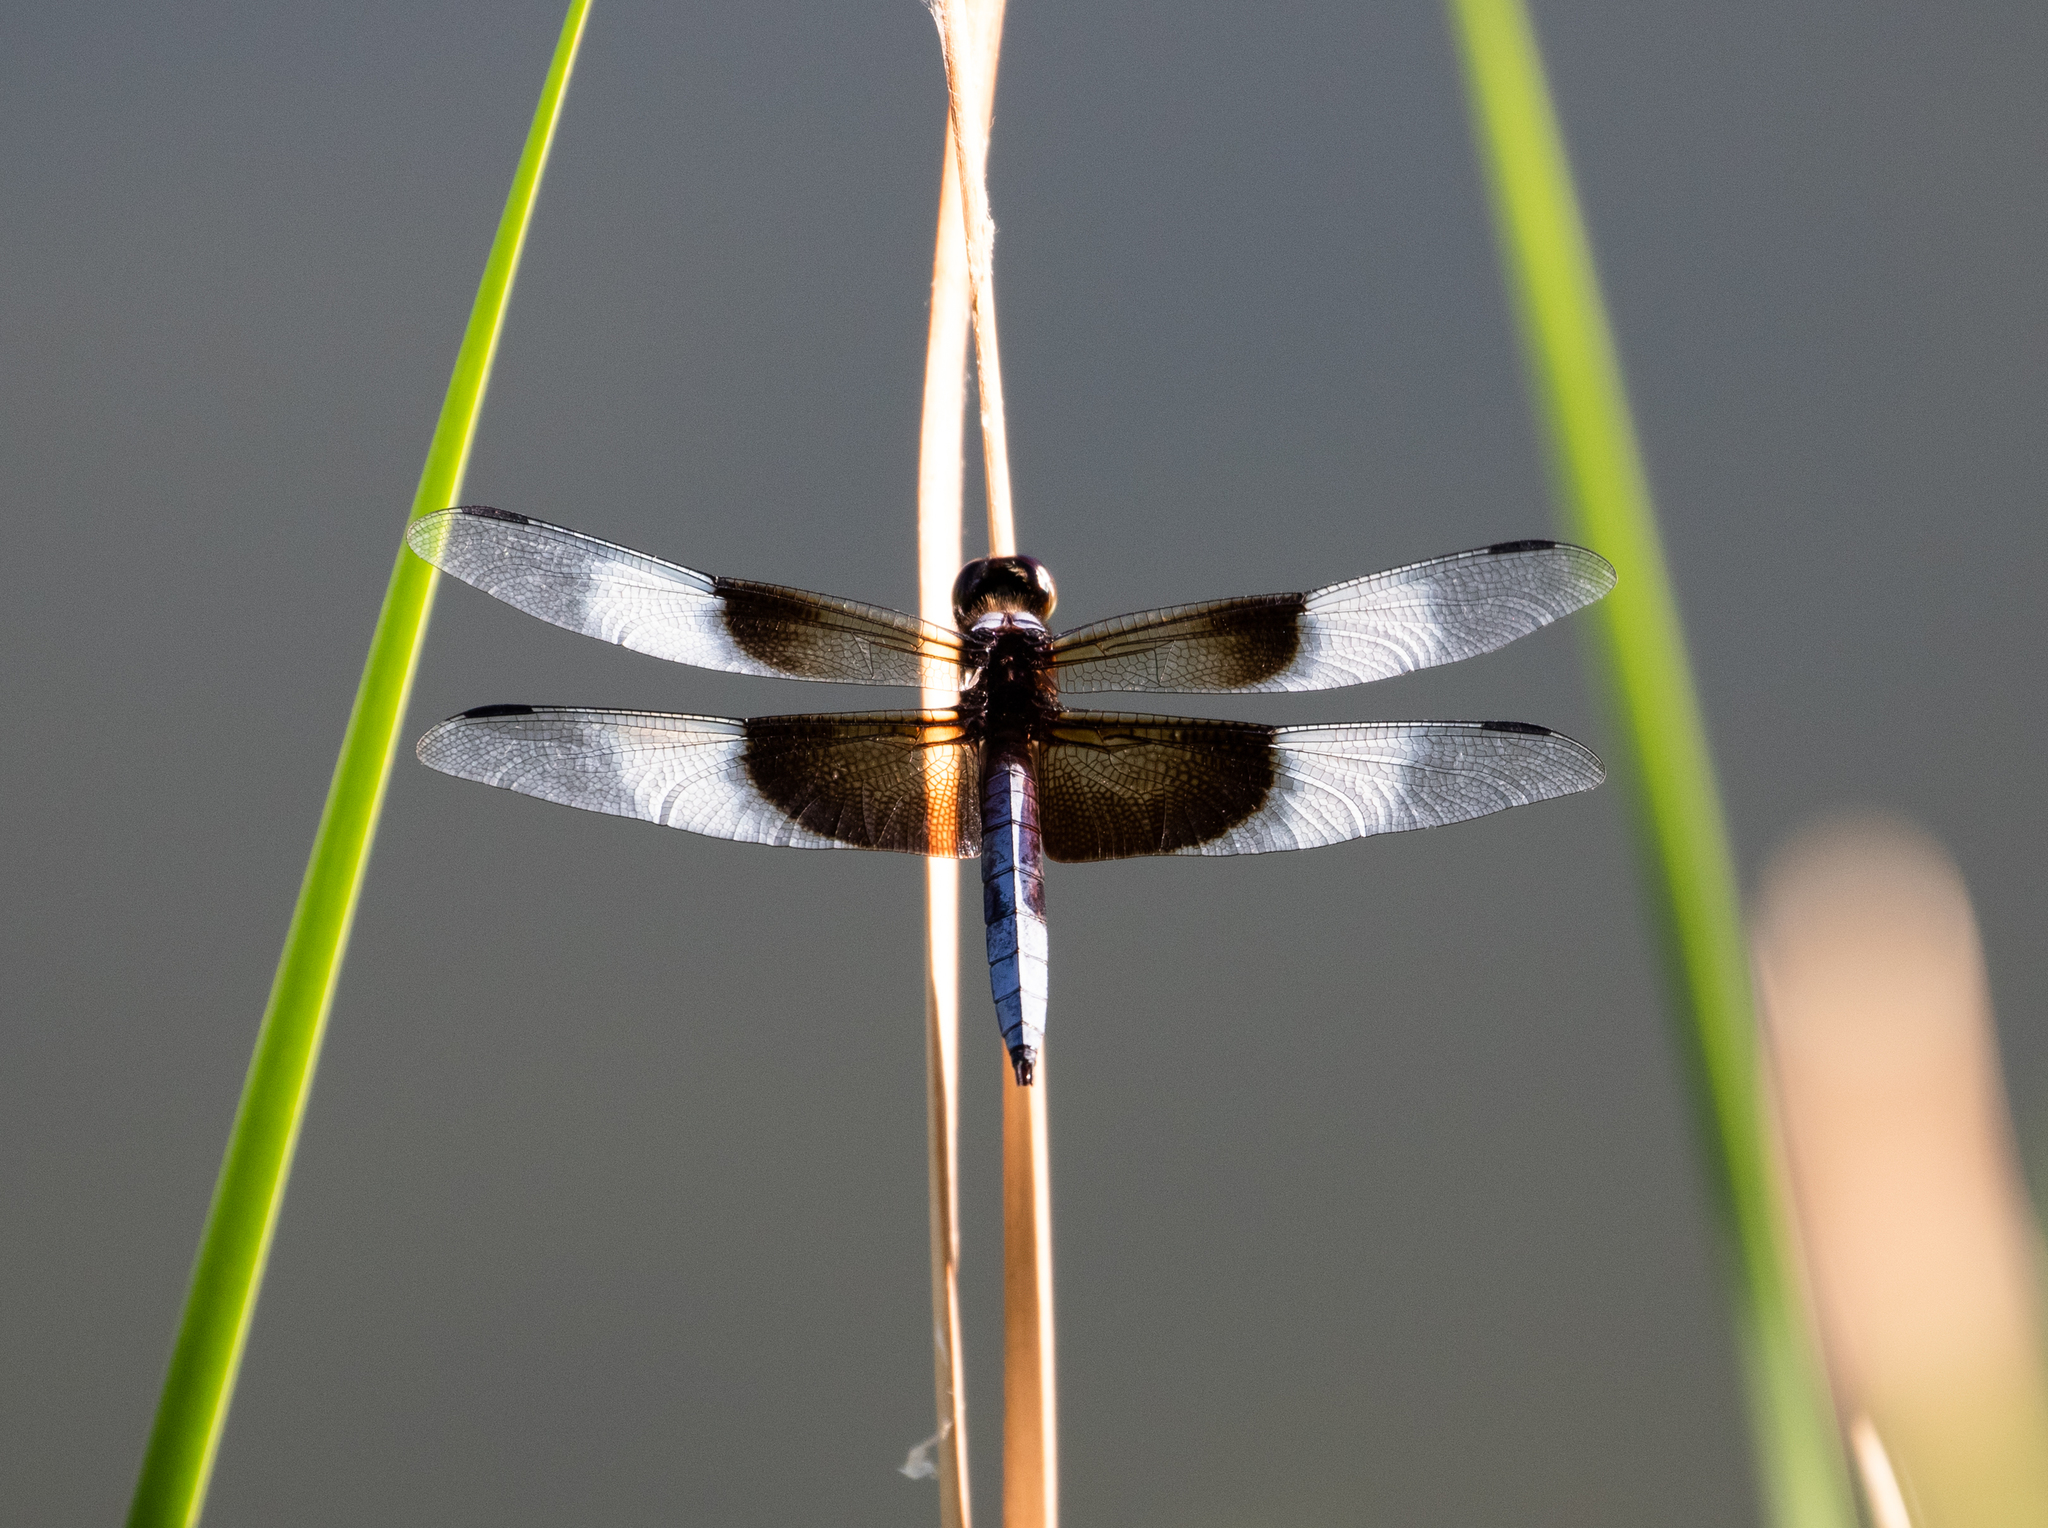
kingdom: Animalia
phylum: Arthropoda
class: Insecta
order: Odonata
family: Libellulidae
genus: Libellula
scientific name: Libellula luctuosa
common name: Widow skimmer
